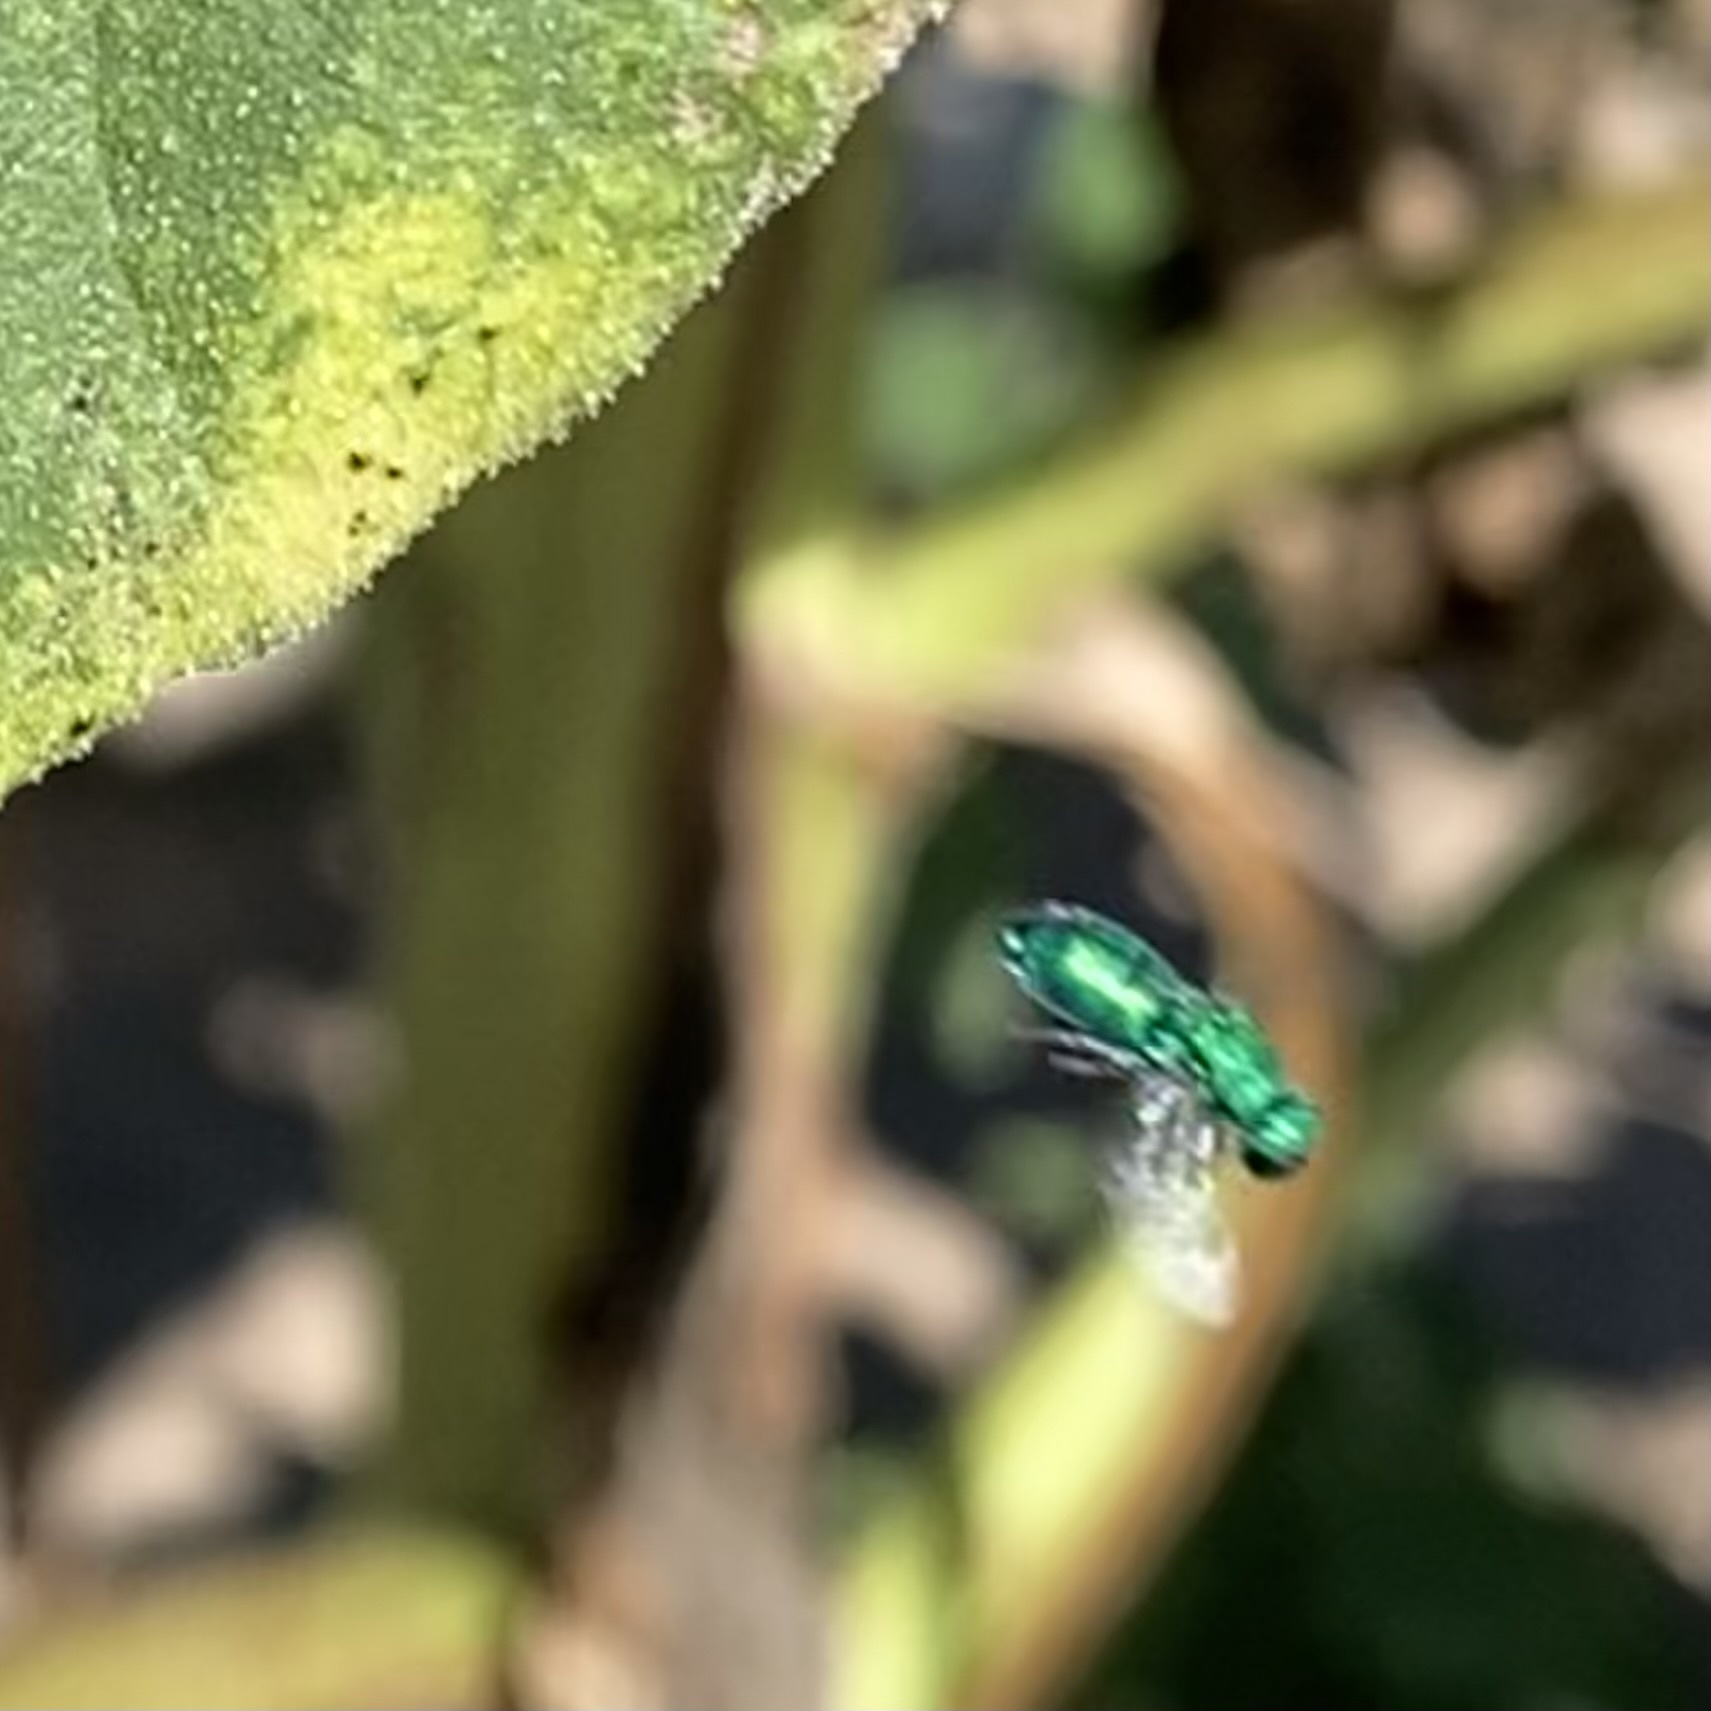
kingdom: Animalia
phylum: Arthropoda
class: Insecta
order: Hymenoptera
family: Chrysididae
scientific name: Chrysididae
